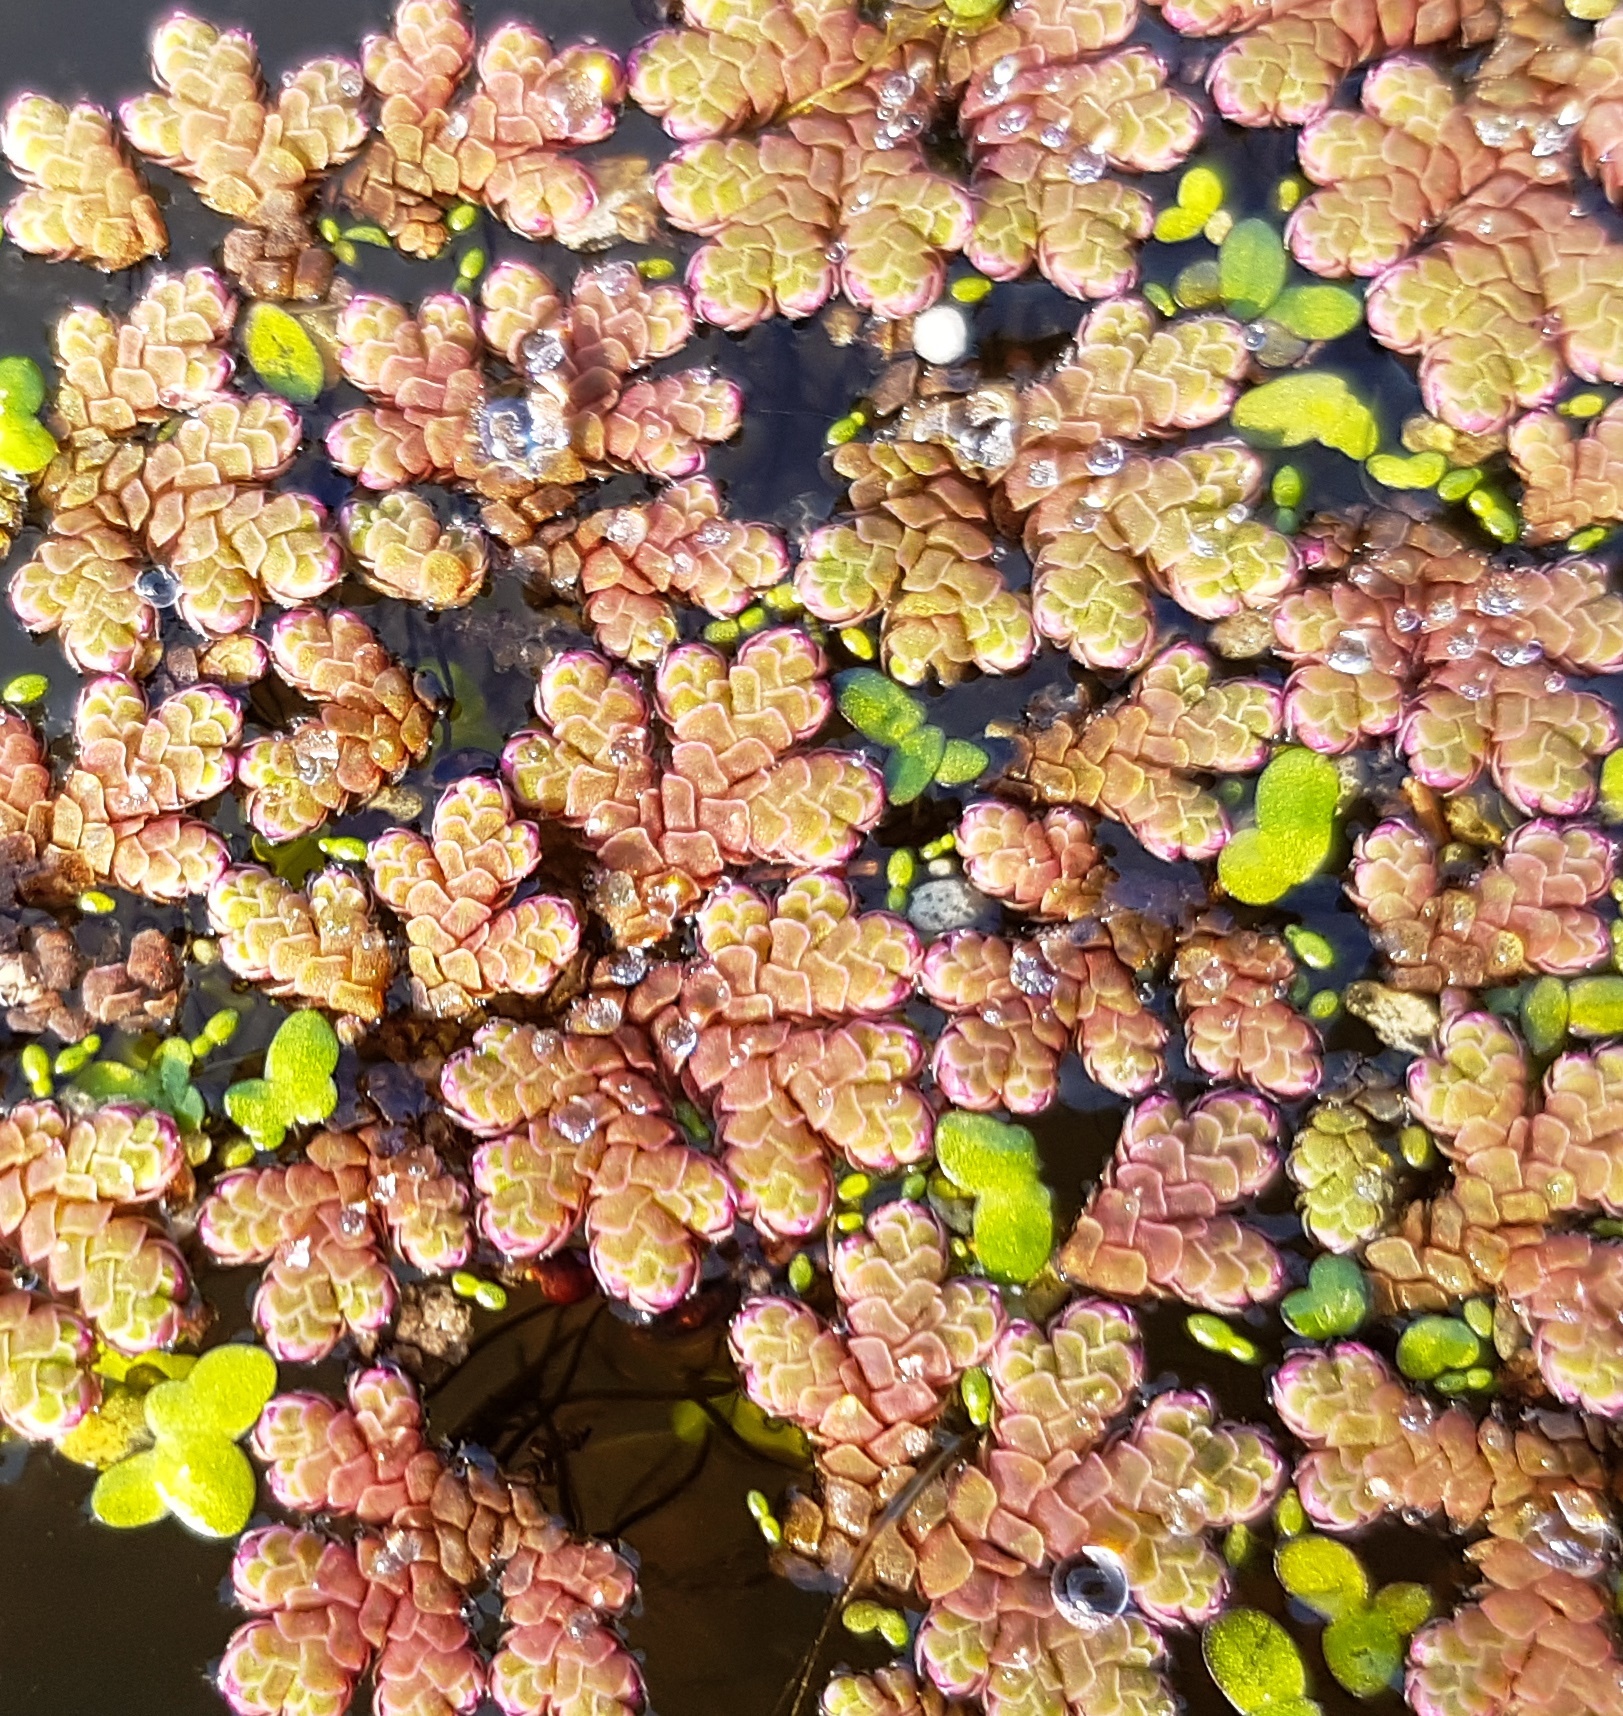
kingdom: Plantae
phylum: Tracheophyta
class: Polypodiopsida
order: Salviniales
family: Salviniaceae
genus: Azolla
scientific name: Azolla rubra
